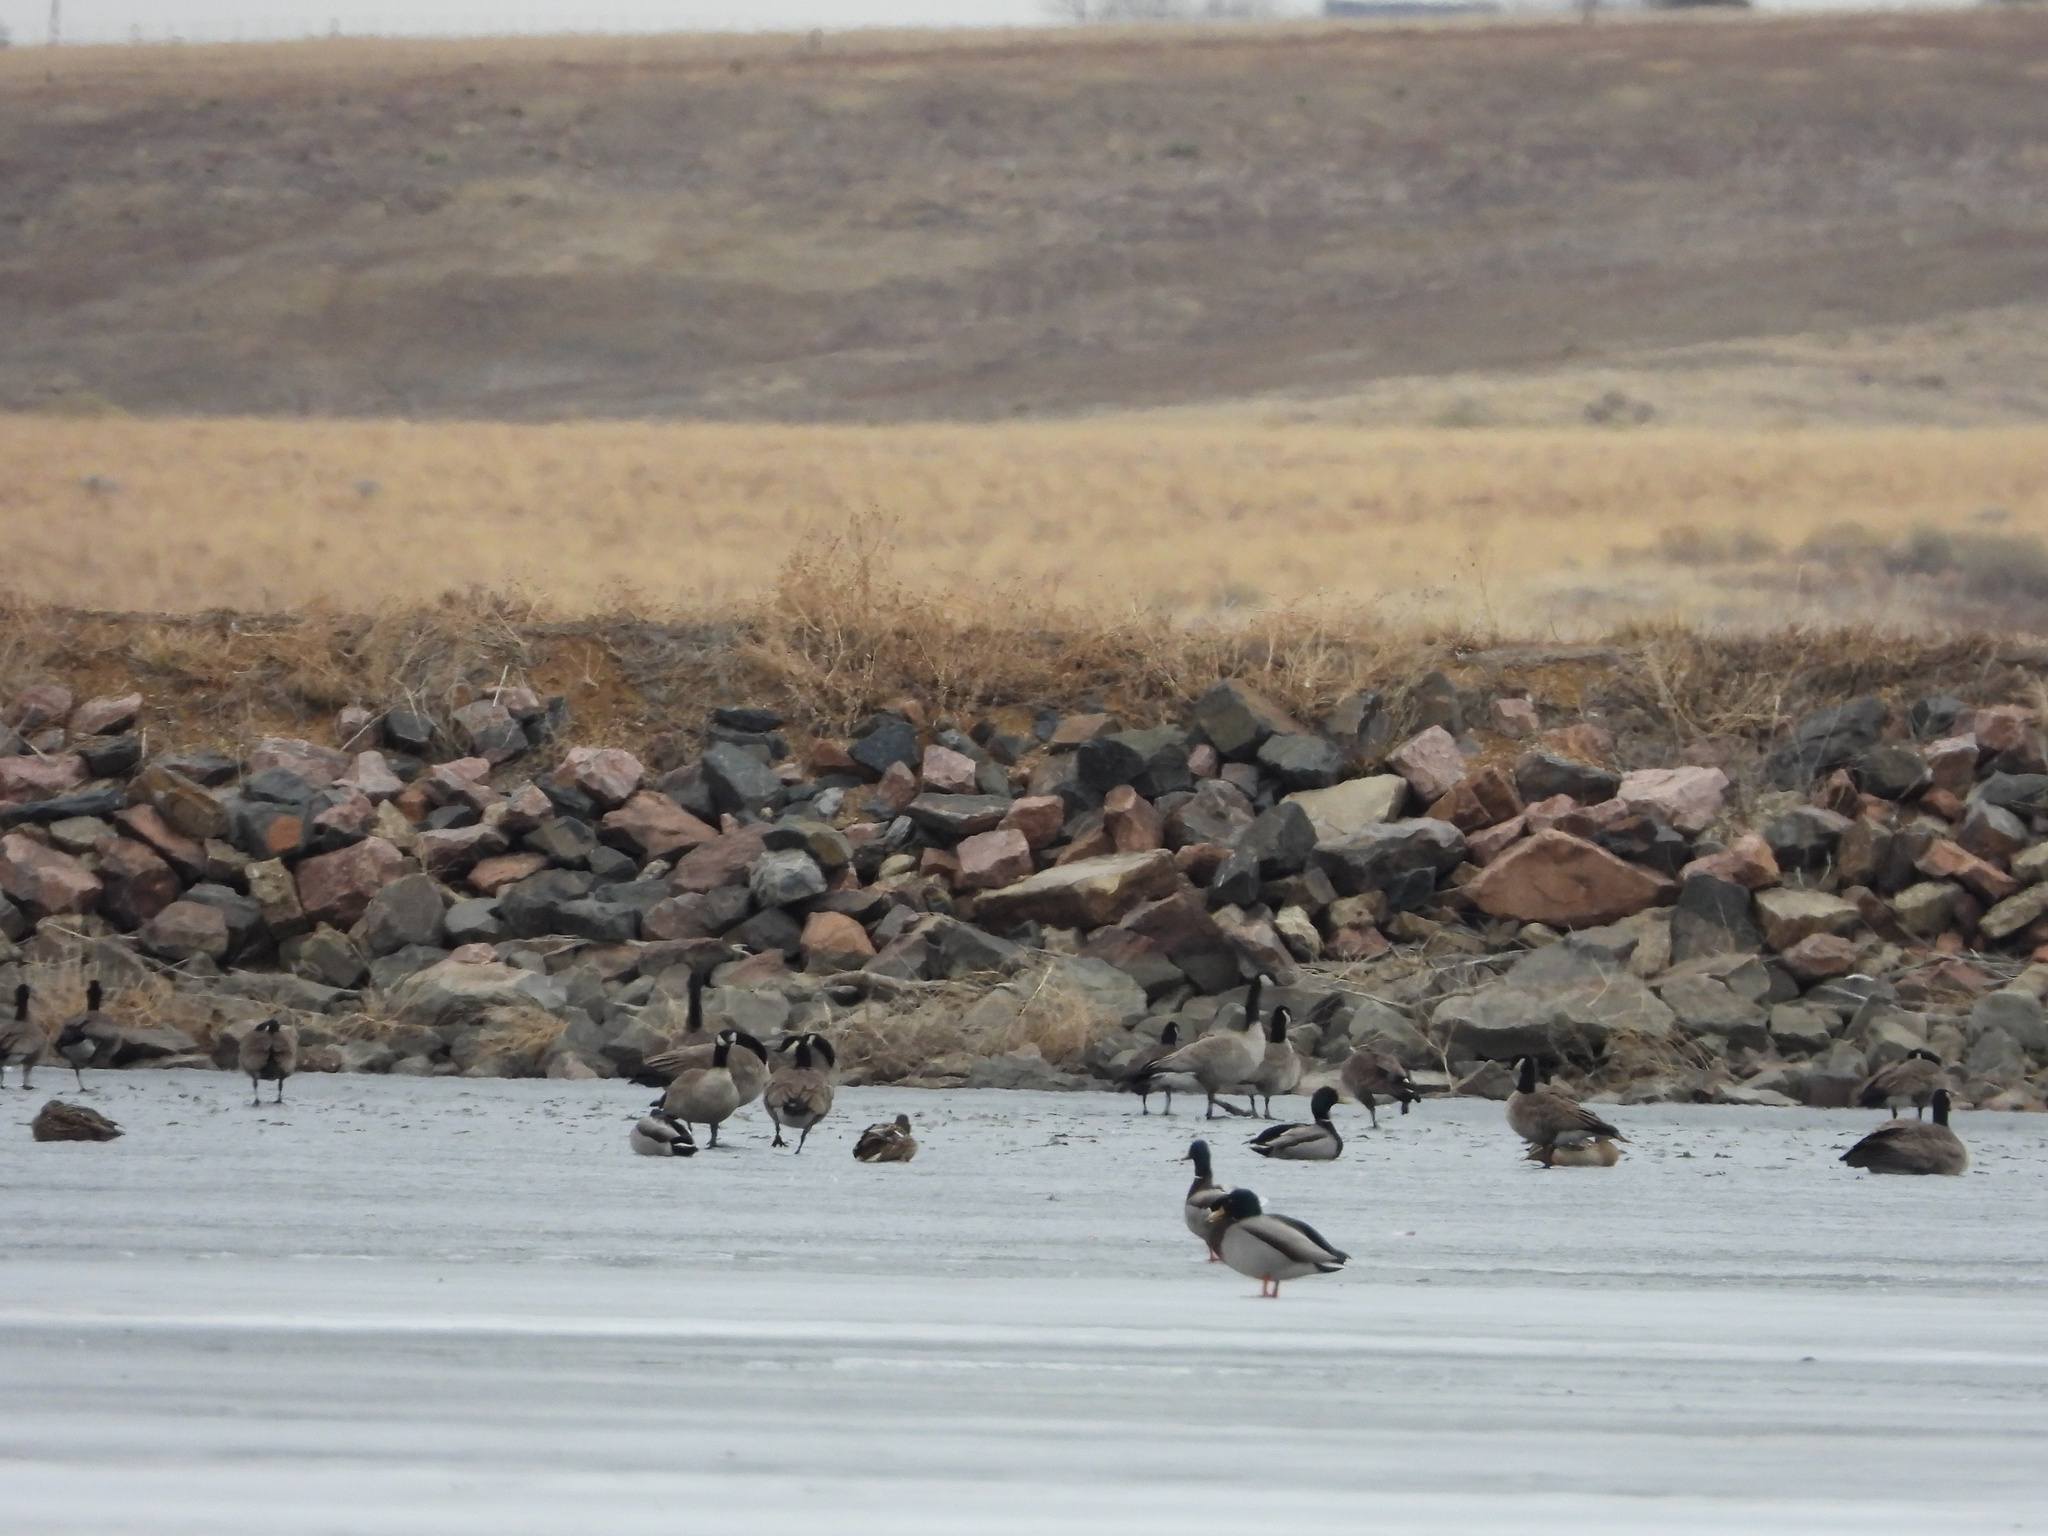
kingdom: Animalia
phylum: Chordata
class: Aves
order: Anseriformes
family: Anatidae
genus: Branta
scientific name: Branta canadensis
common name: Canada goose
